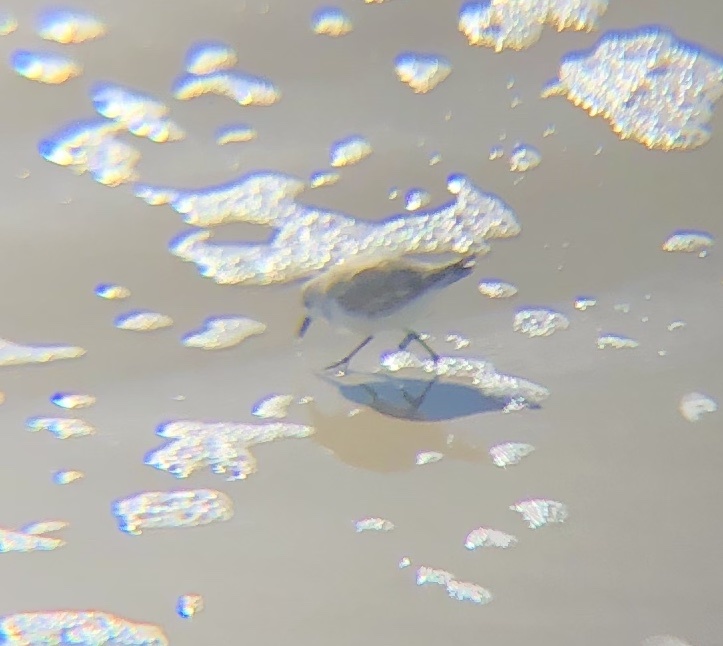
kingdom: Animalia
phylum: Chordata
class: Aves
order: Charadriiformes
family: Scolopacidae
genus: Calidris
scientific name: Calidris alba
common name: Sanderling
